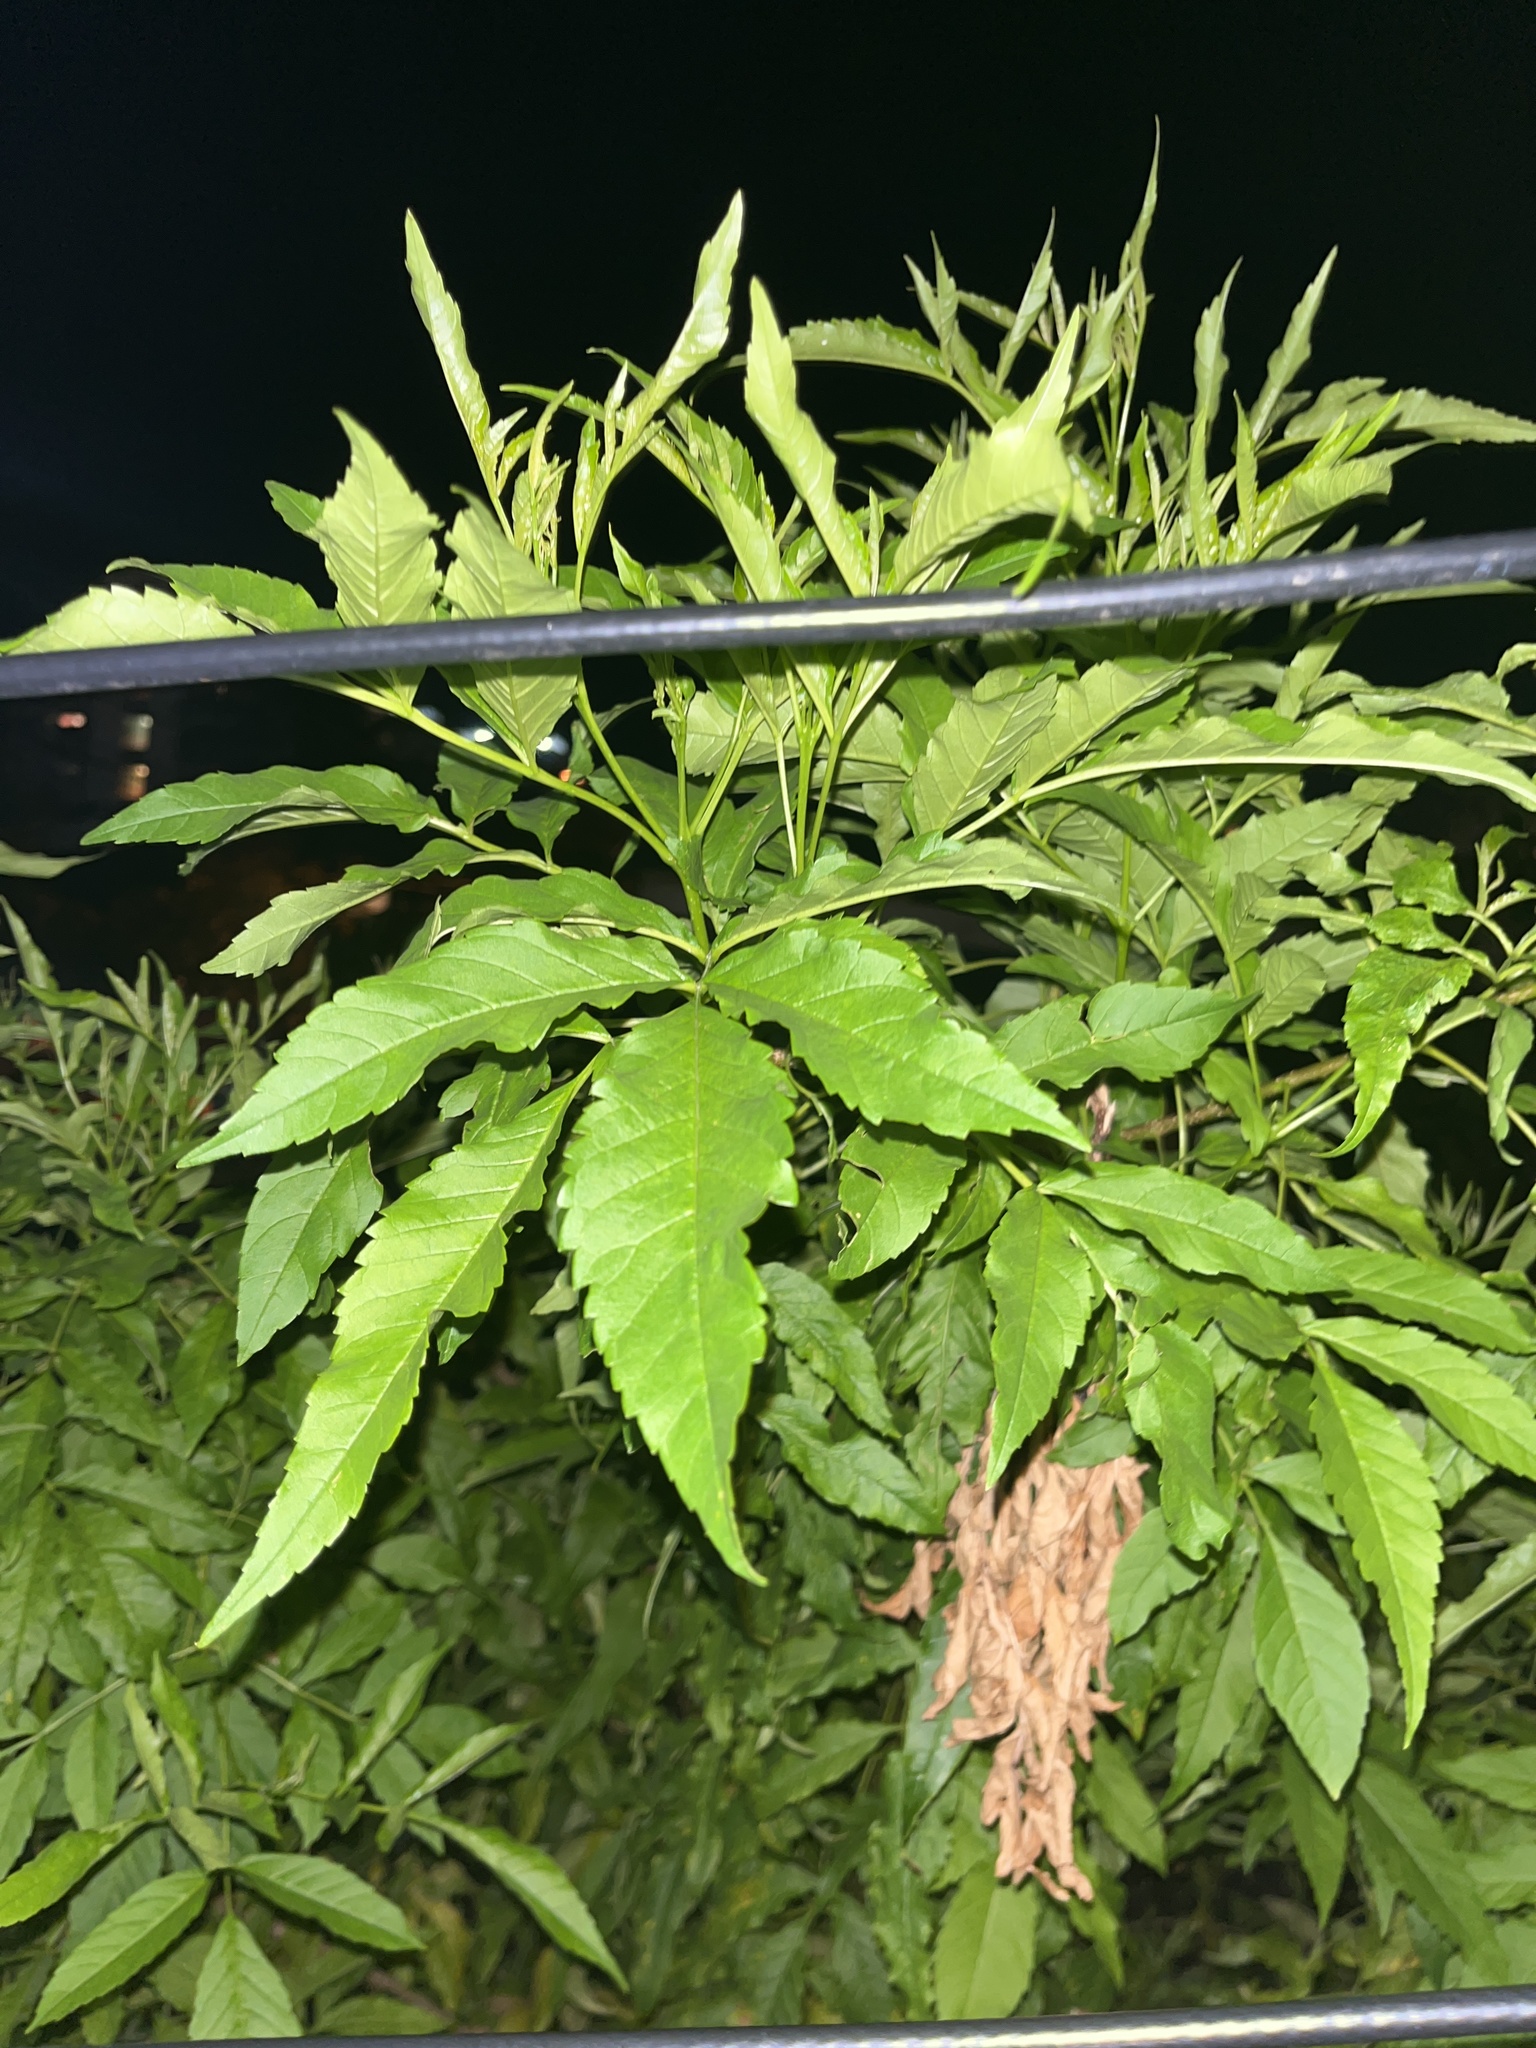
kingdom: Plantae
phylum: Tracheophyta
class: Magnoliopsida
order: Lamiales
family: Bignoniaceae
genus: Tecoma
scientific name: Tecoma stans
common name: Yellow trumpetbush
